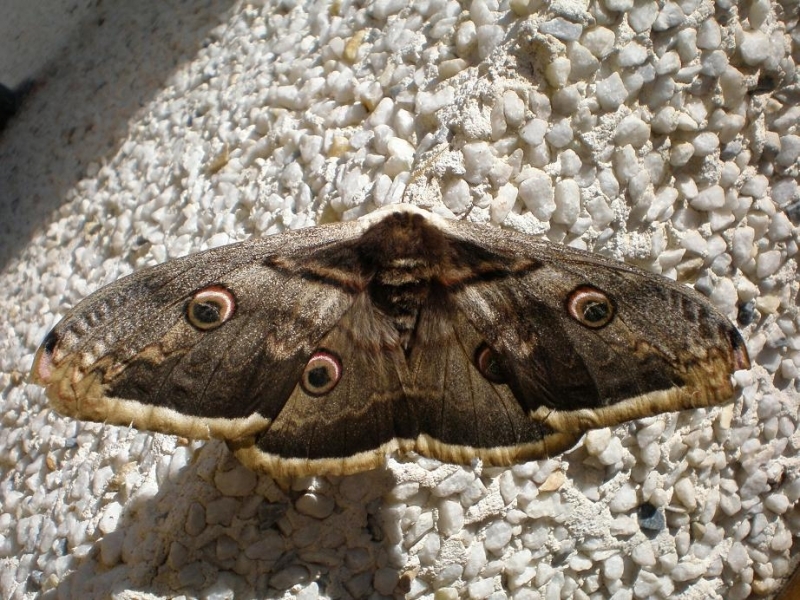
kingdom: Animalia
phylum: Arthropoda
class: Insecta
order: Lepidoptera
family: Saturniidae
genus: Saturnia
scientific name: Saturnia pyri
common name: Great peacock moth
